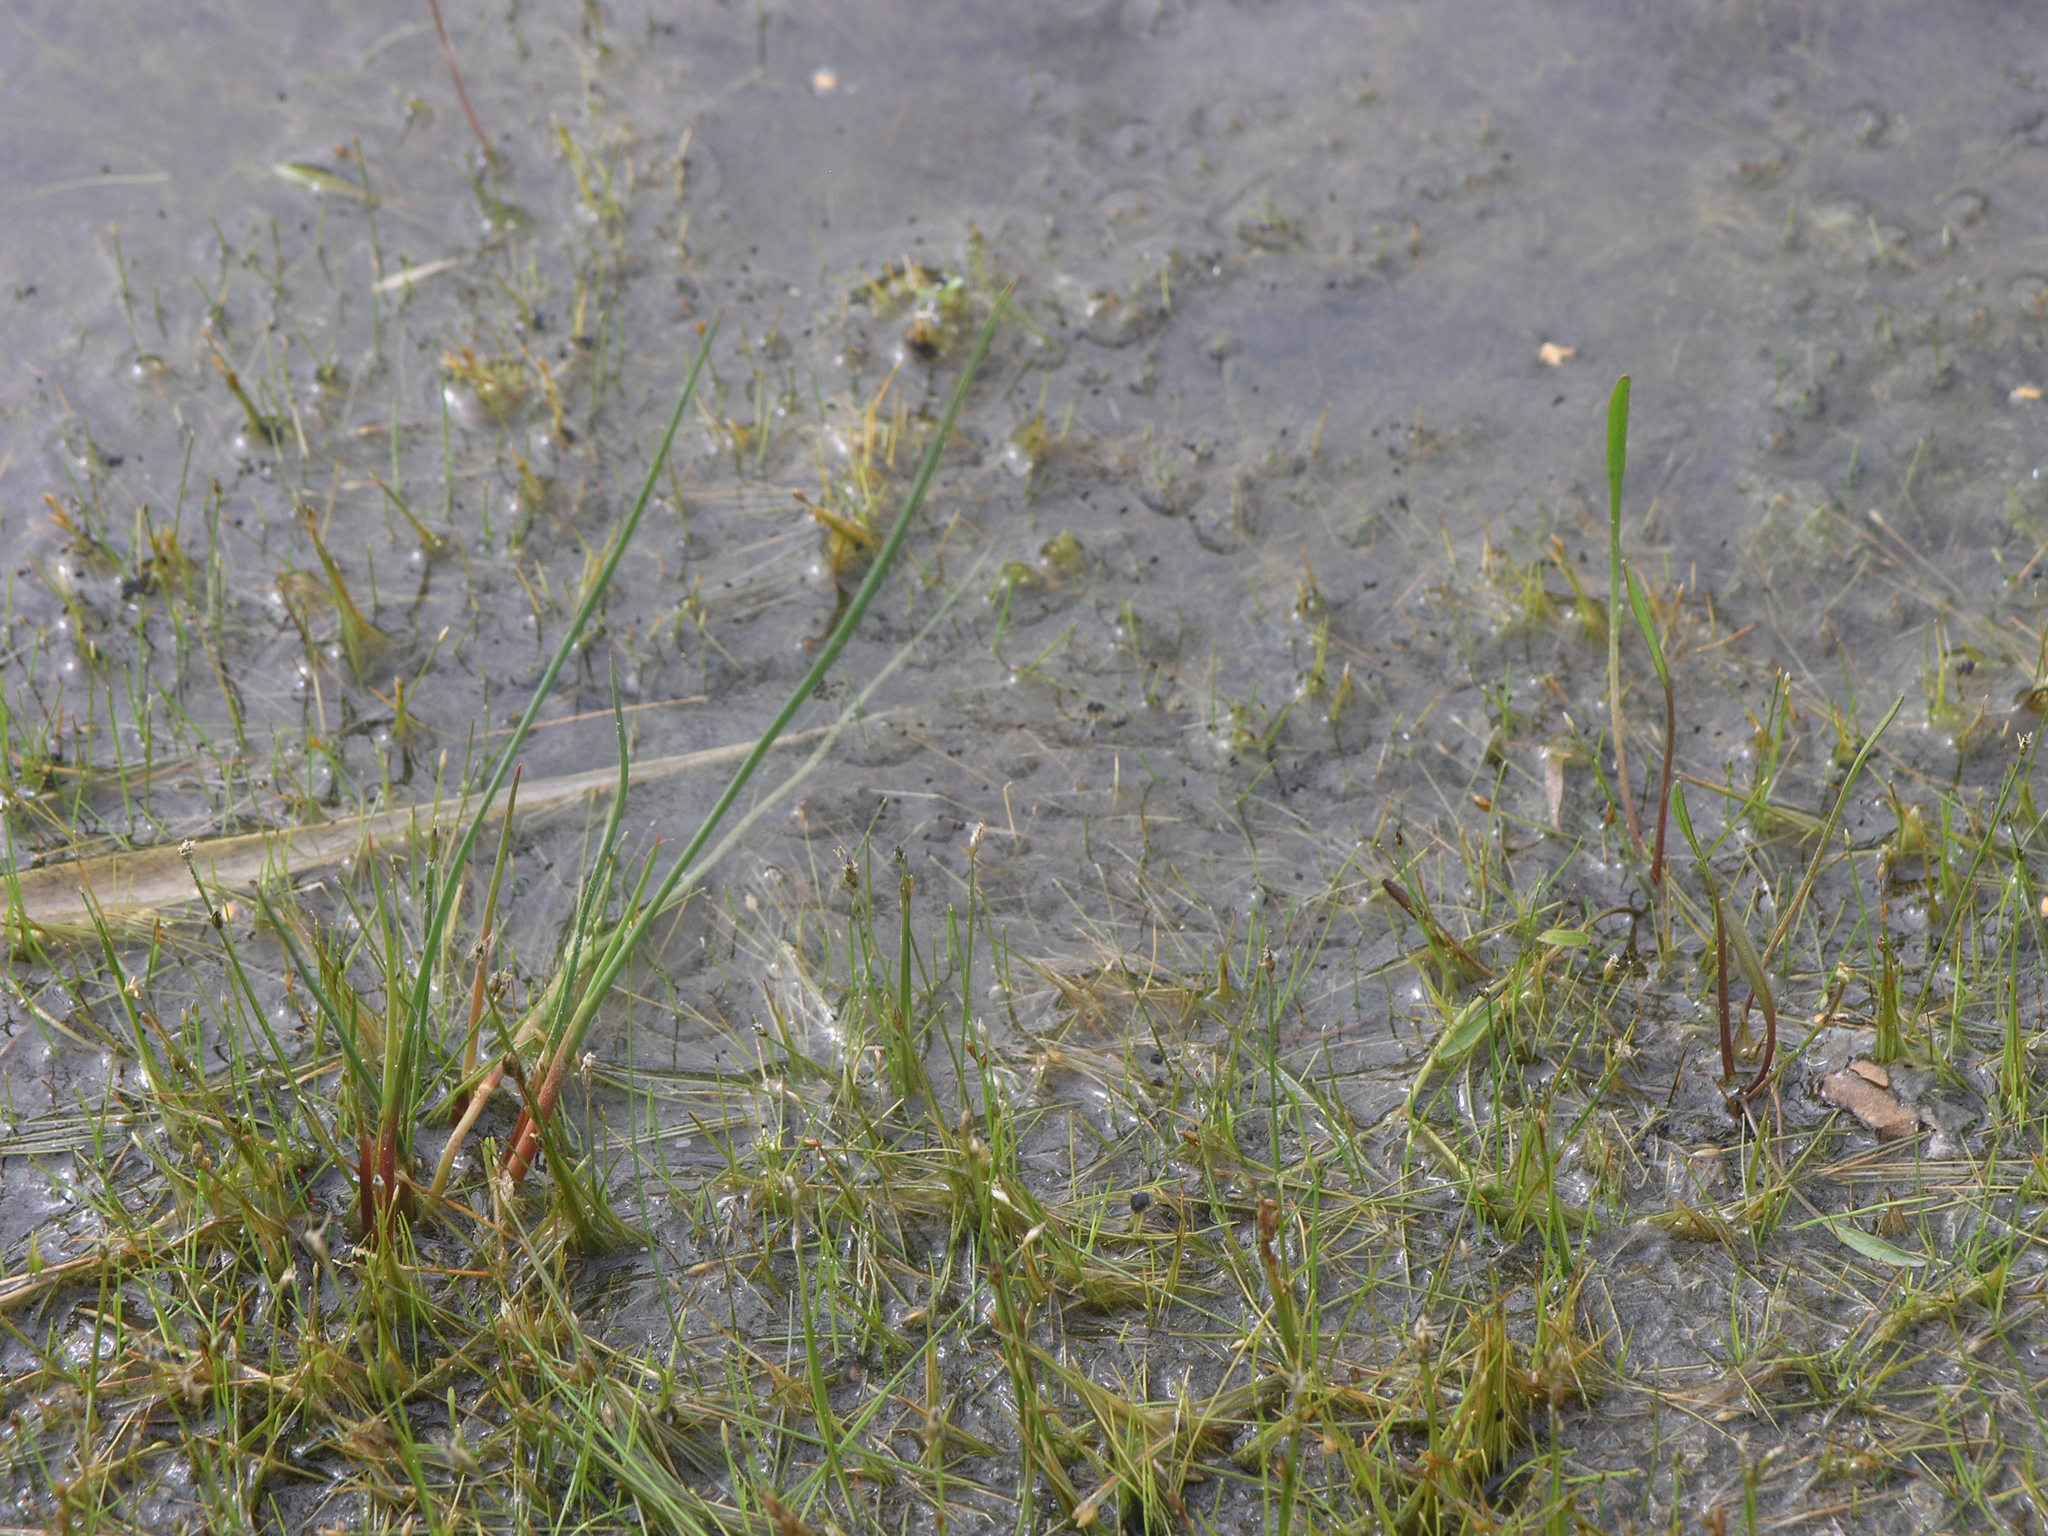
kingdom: Plantae
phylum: Tracheophyta
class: Liliopsida
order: Poales
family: Cyperaceae
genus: Eleocharis
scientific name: Eleocharis acicularis
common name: Needle spike-rush
